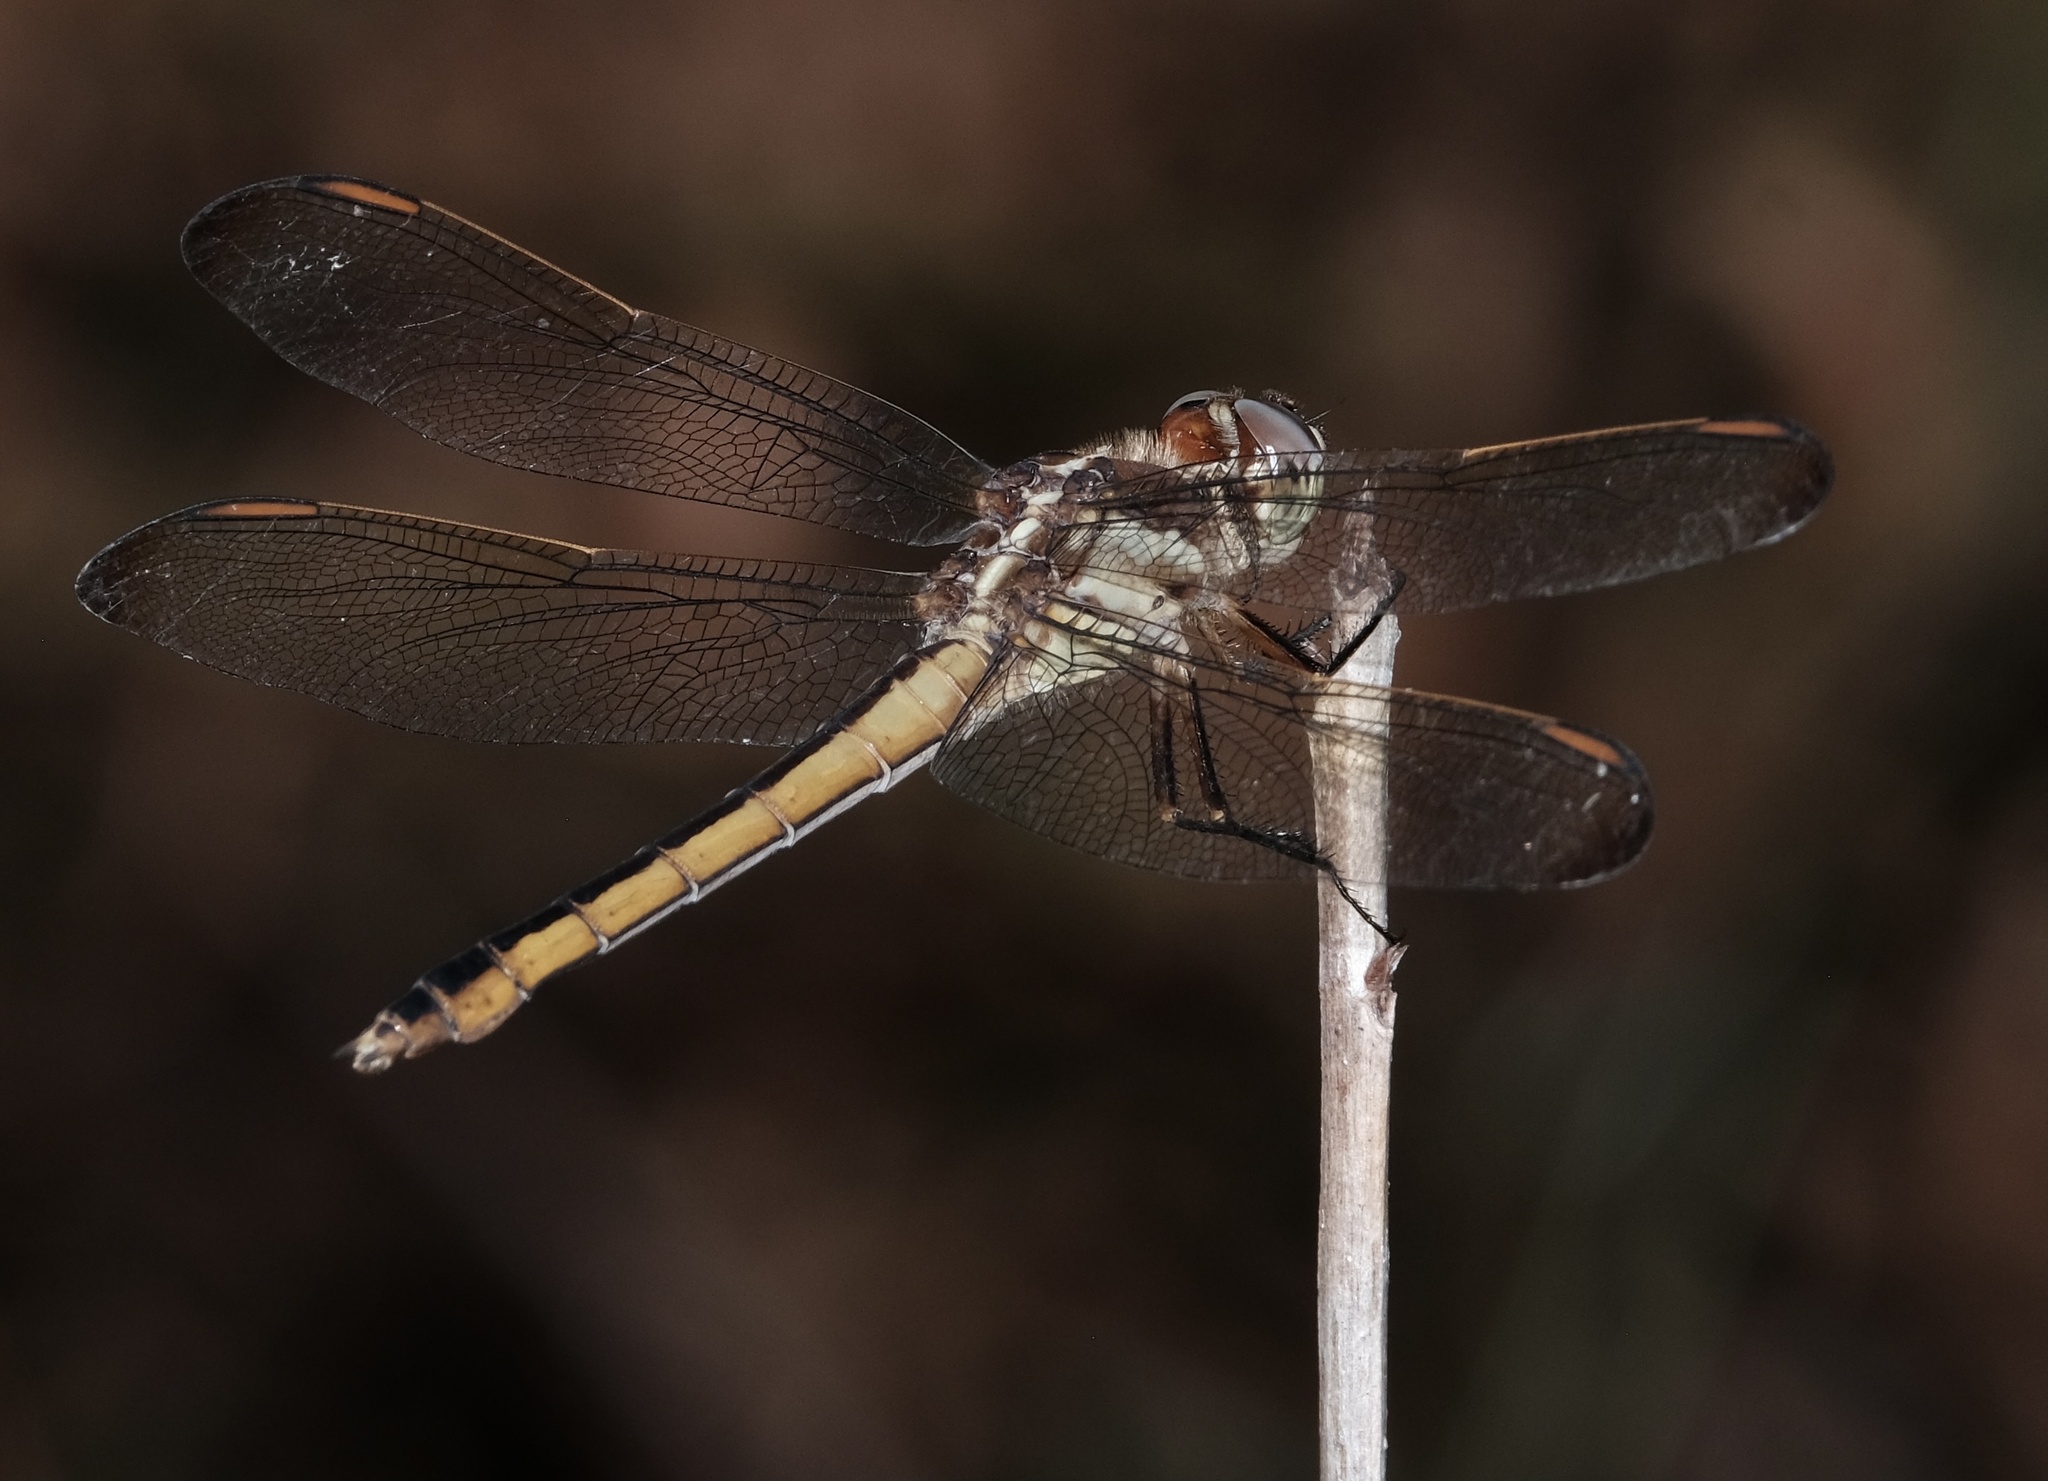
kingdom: Animalia
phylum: Arthropoda
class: Insecta
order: Odonata
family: Libellulidae
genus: Libellula
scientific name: Libellula needhami
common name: Needham's skimmer
